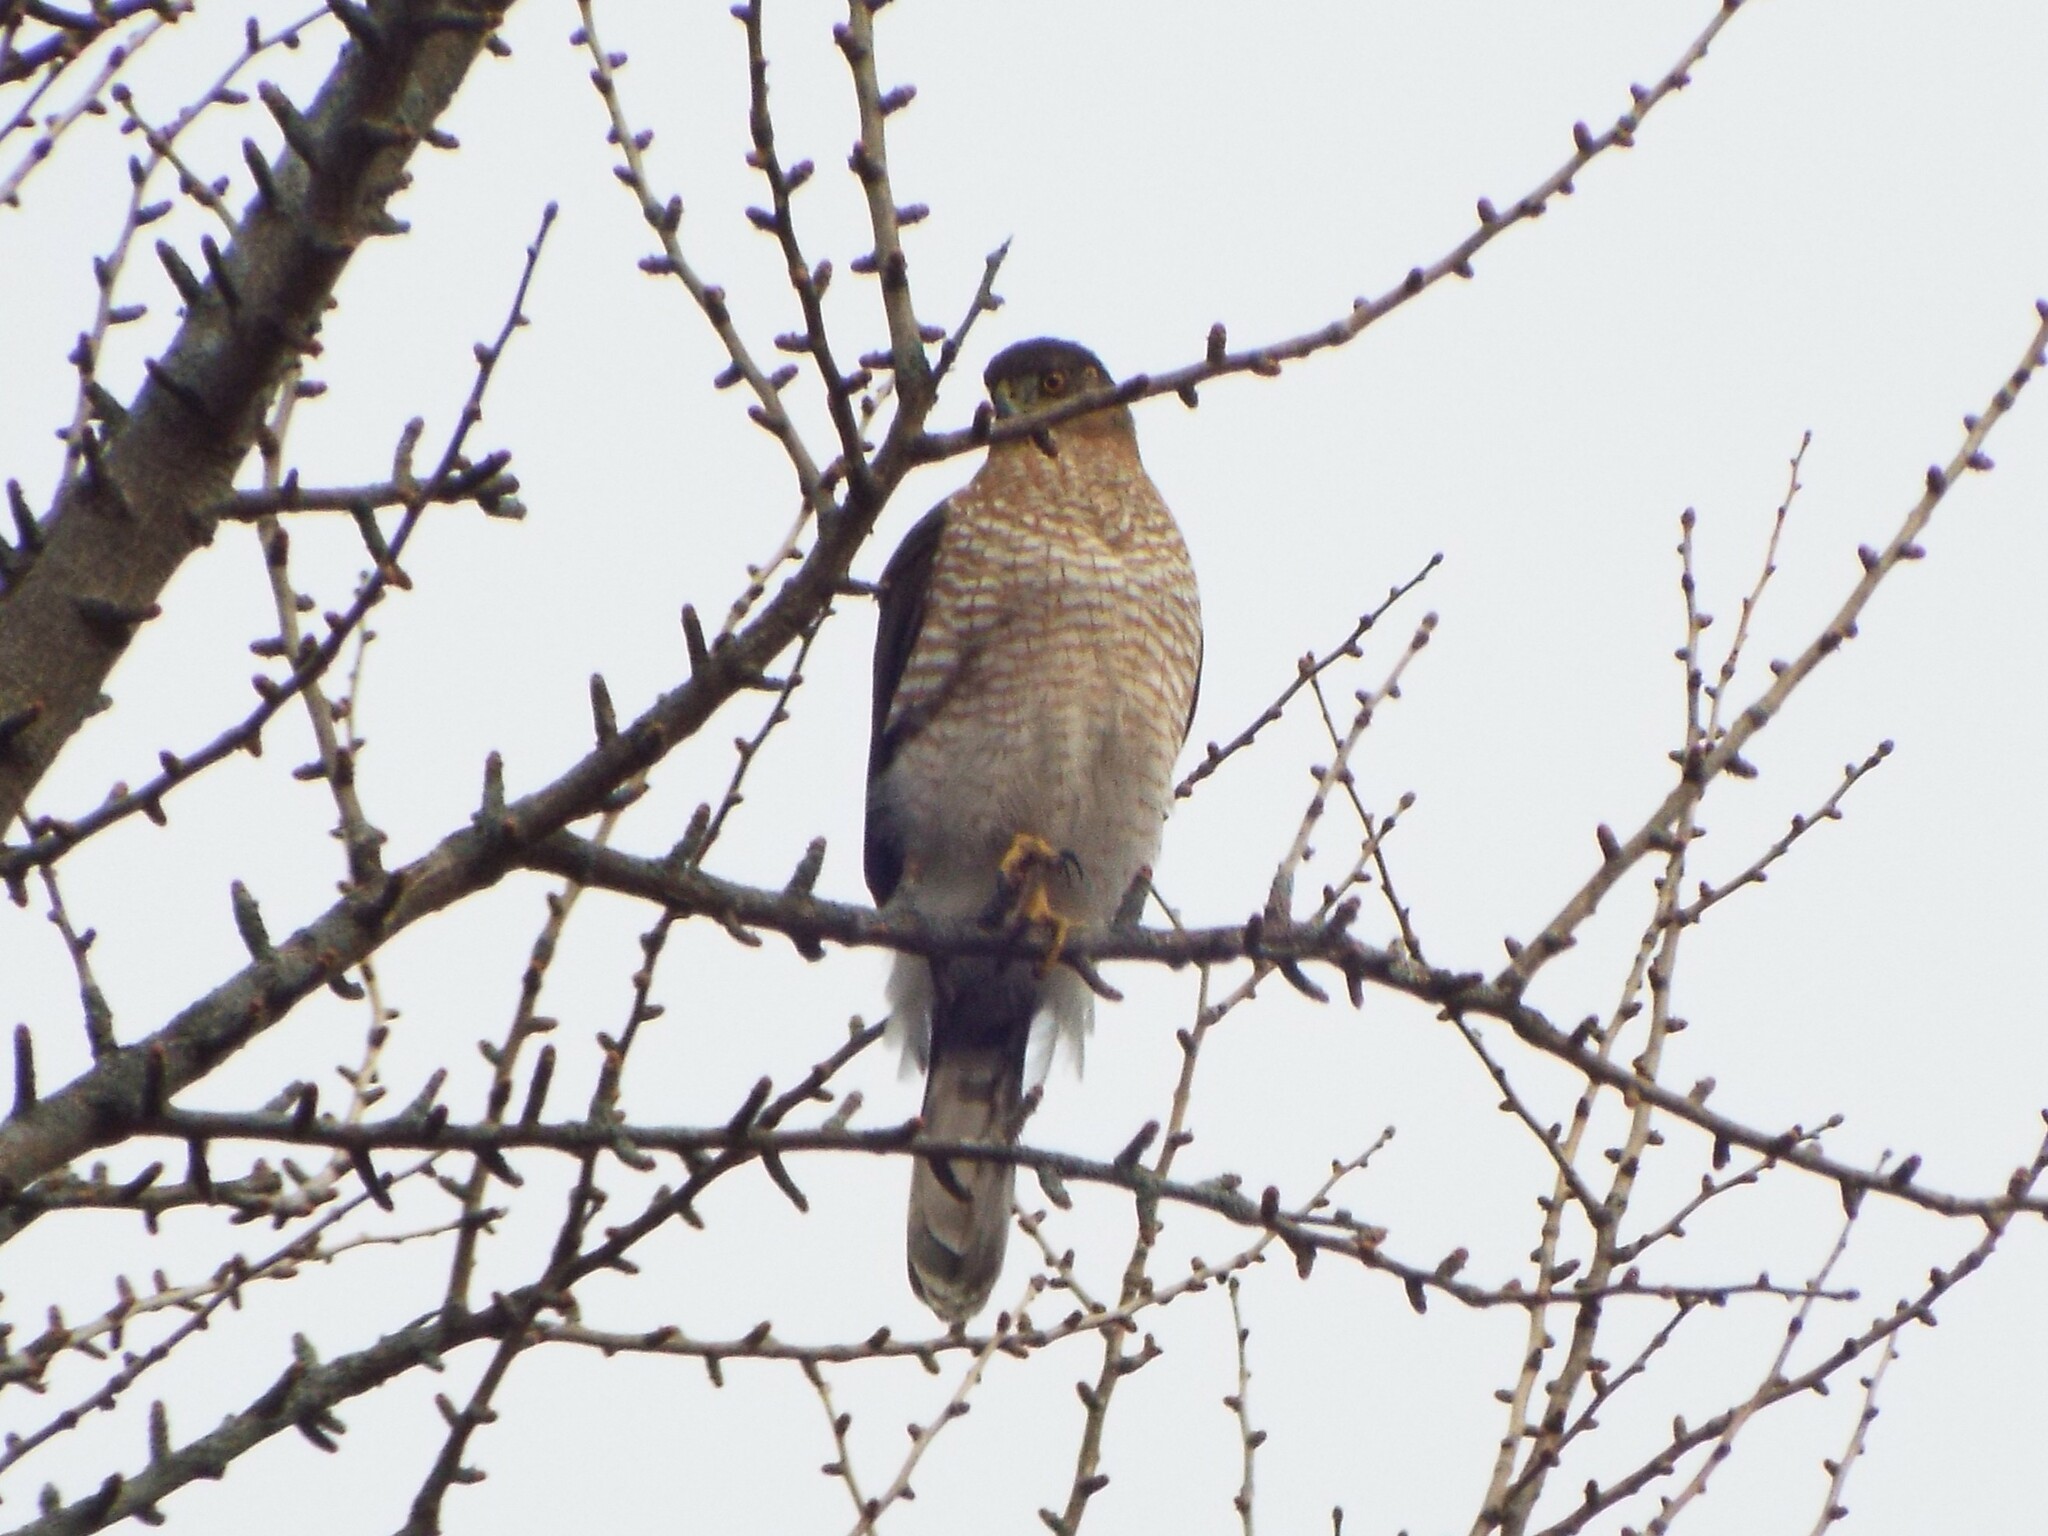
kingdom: Animalia
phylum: Chordata
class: Aves
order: Accipitriformes
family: Accipitridae
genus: Accipiter
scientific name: Accipiter cooperii
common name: Cooper's hawk
